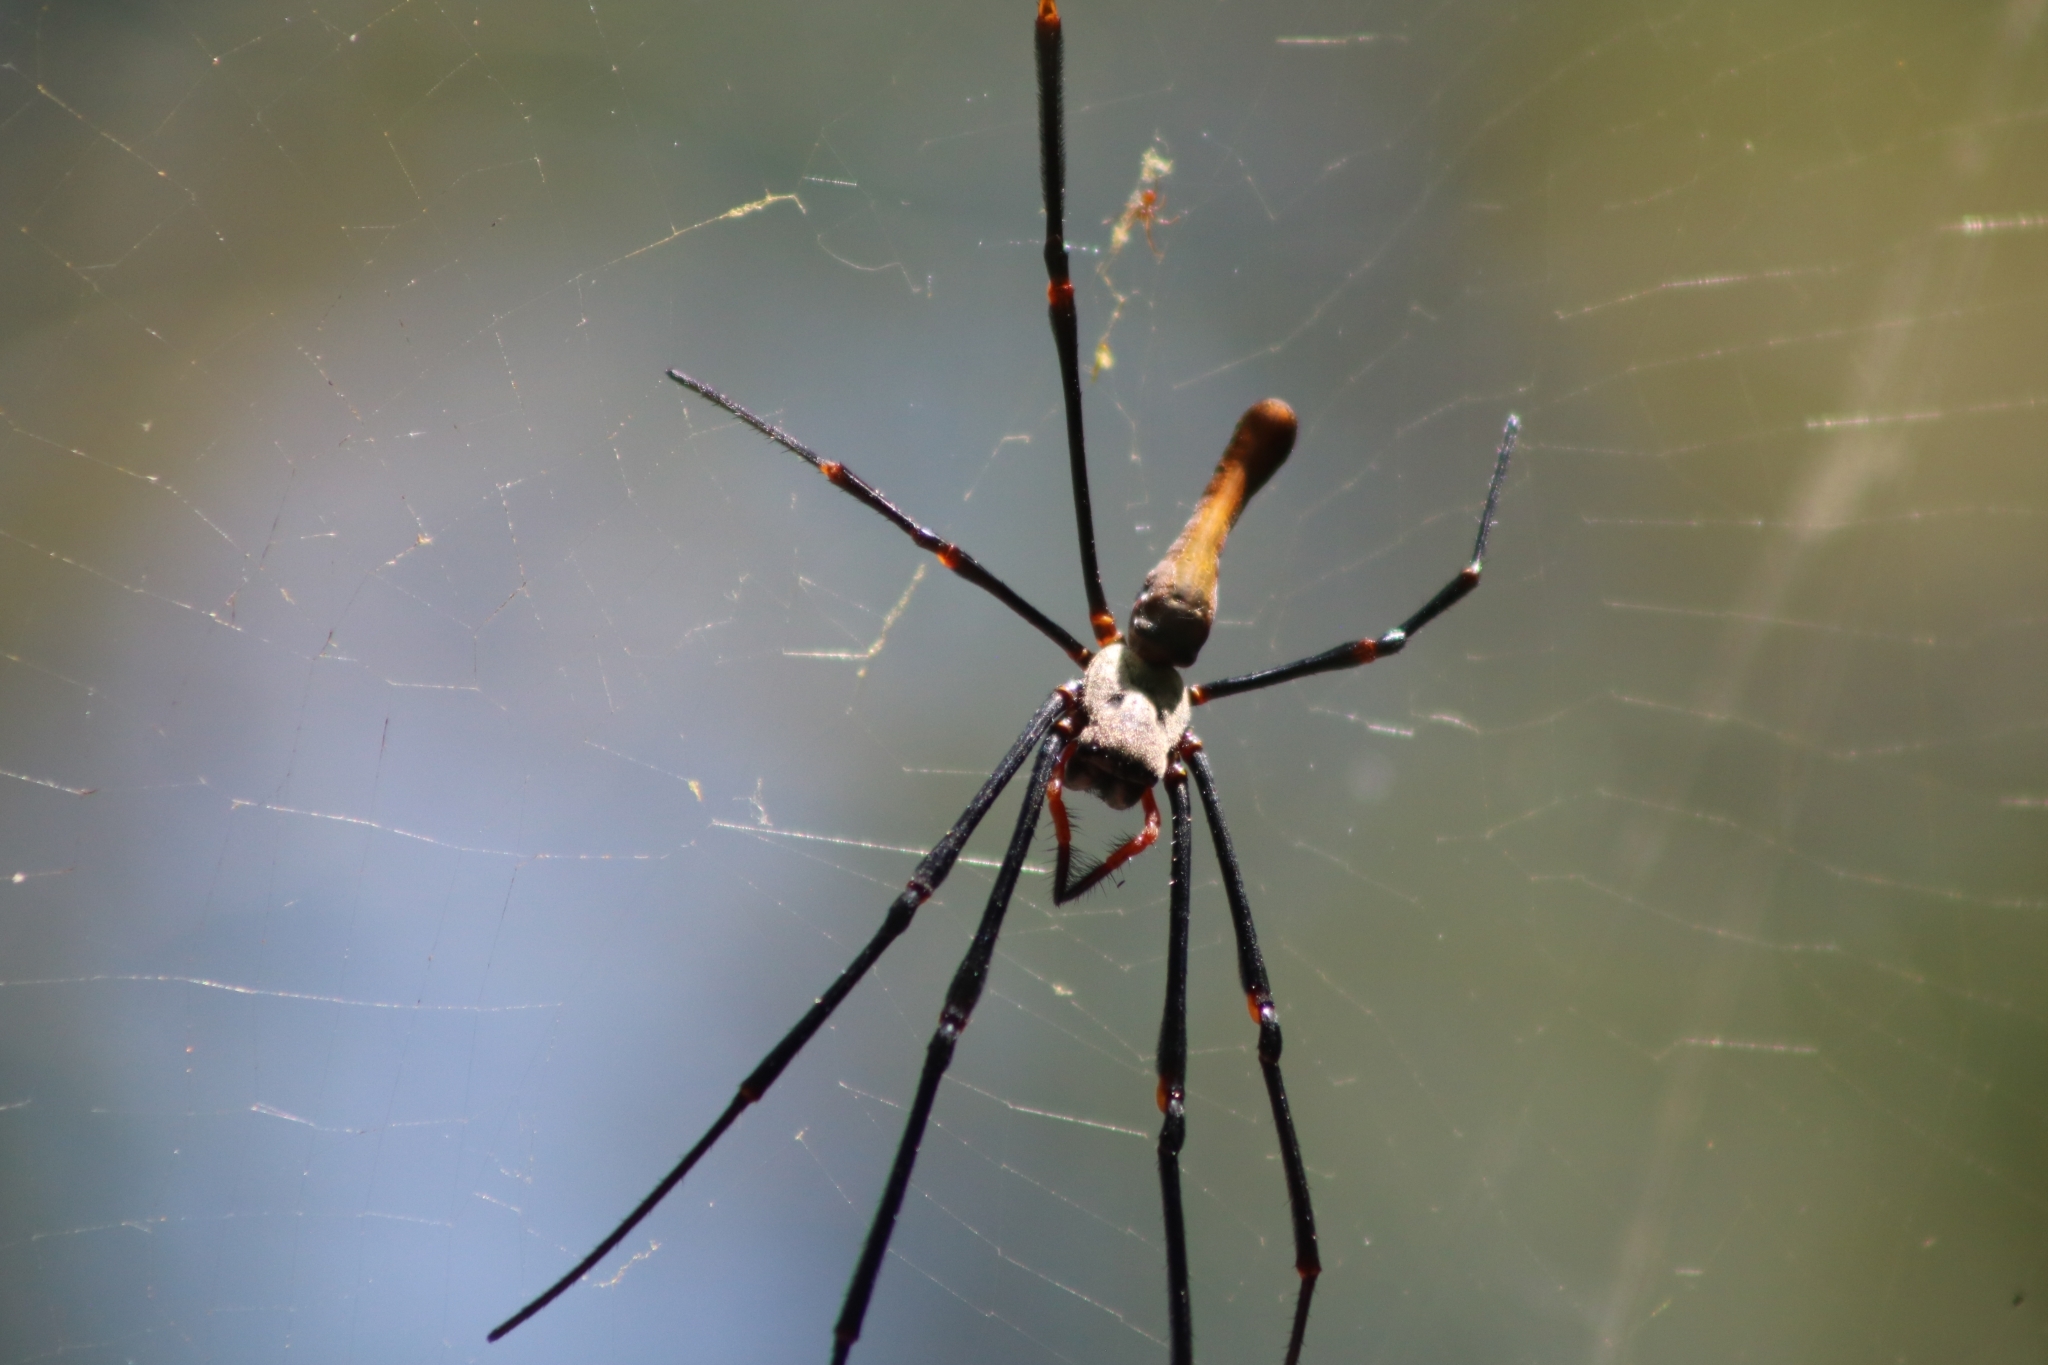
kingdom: Animalia
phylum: Arthropoda
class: Arachnida
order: Araneae
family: Araneidae
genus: Nephila
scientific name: Nephila pilipes
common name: Giant golden orb weaver
